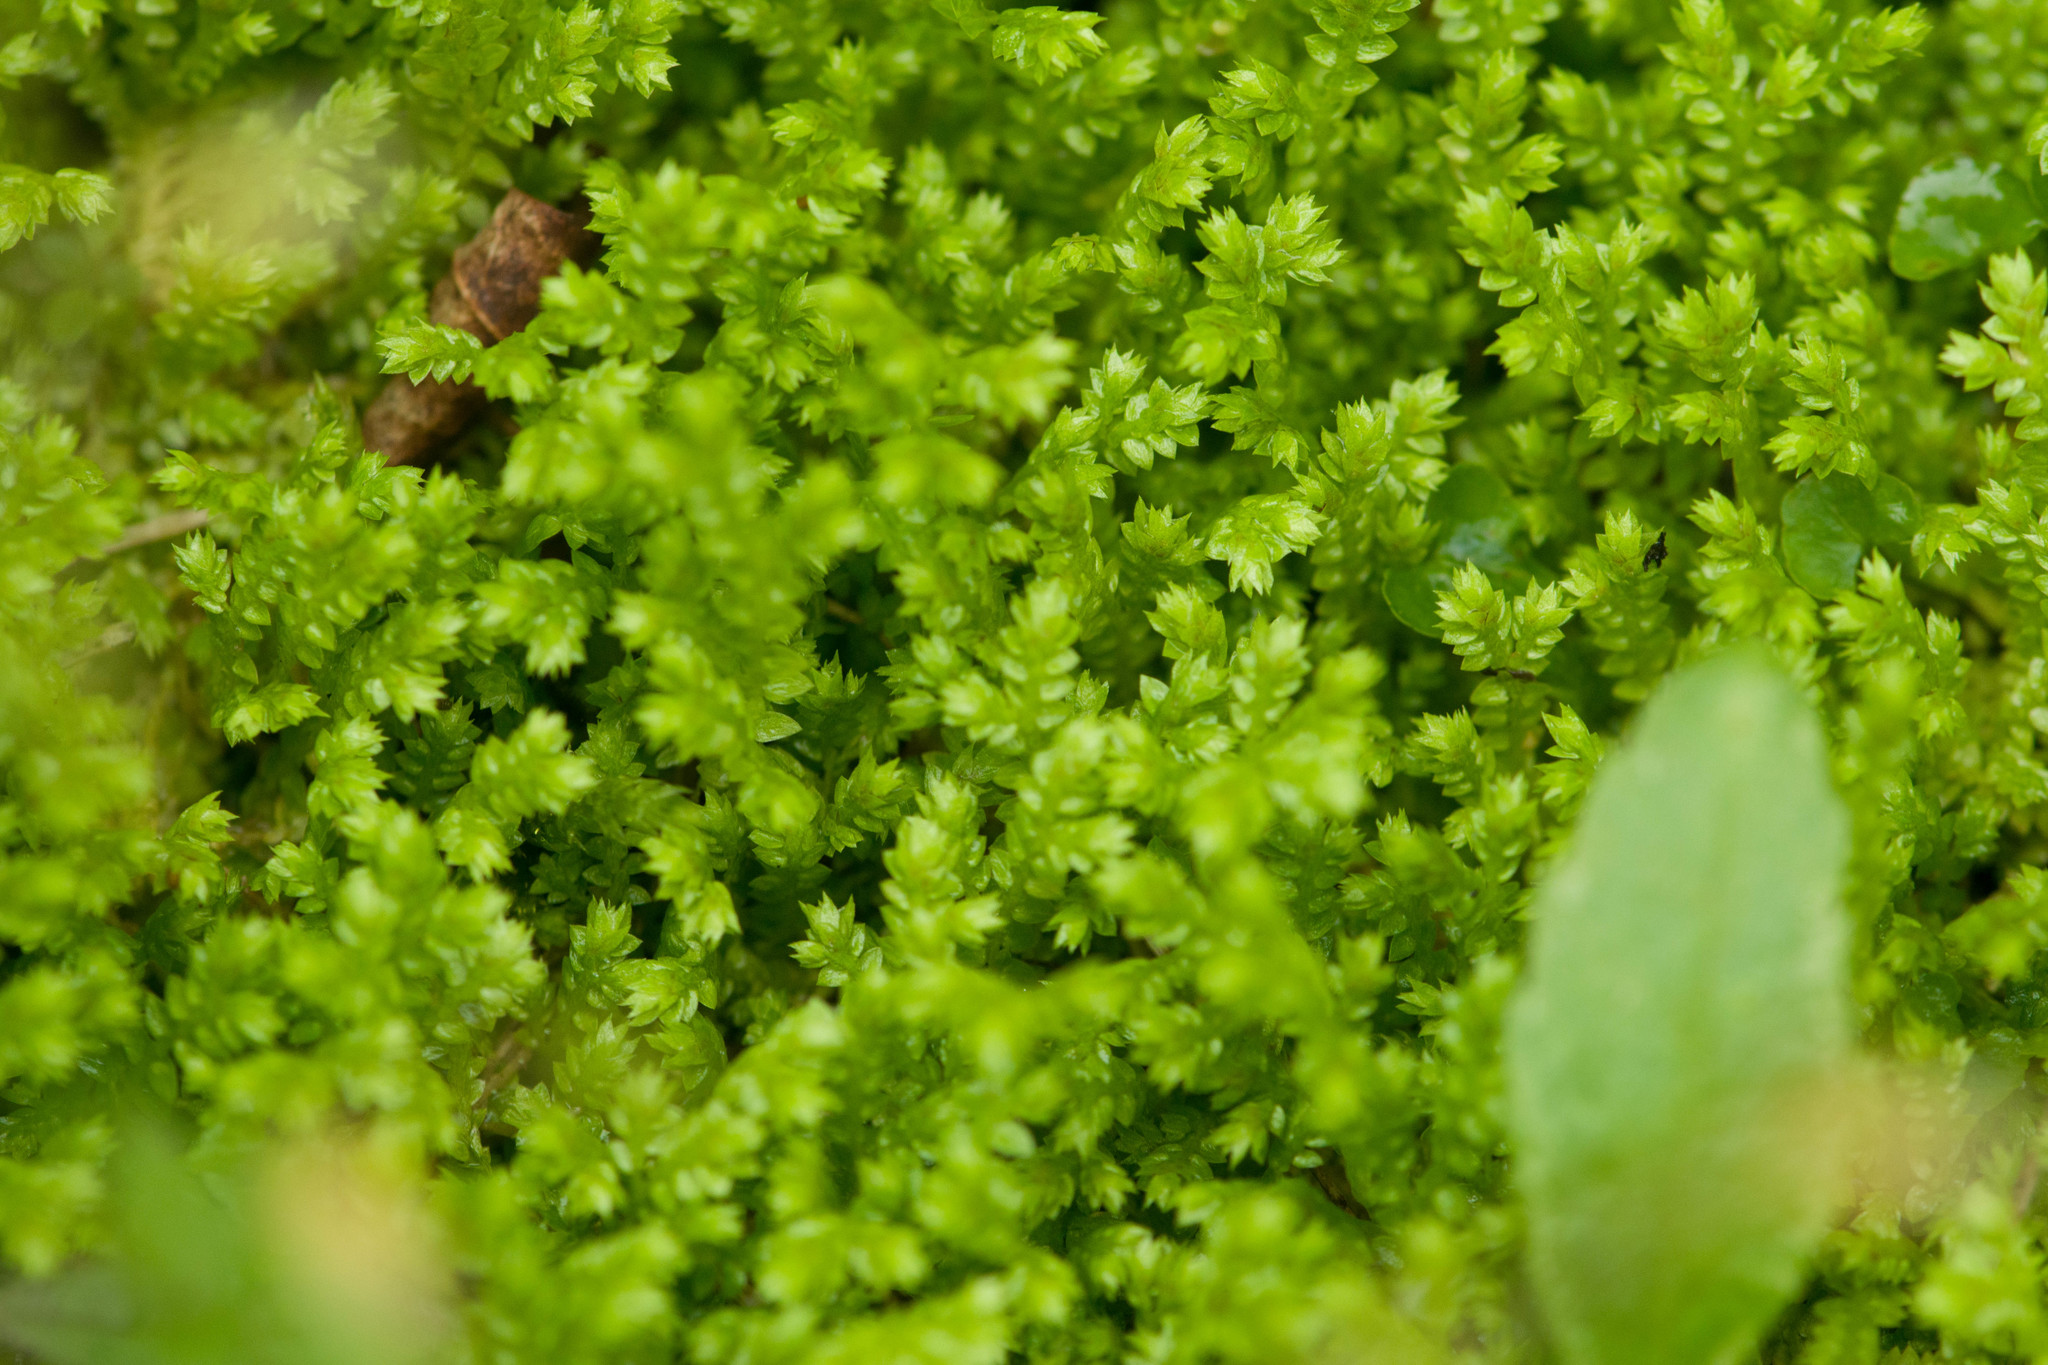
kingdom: Plantae
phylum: Tracheophyta
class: Lycopodiopsida
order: Selaginellales
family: Selaginellaceae
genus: Selaginella
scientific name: Selaginella apoda
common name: Creeping spikemoss
